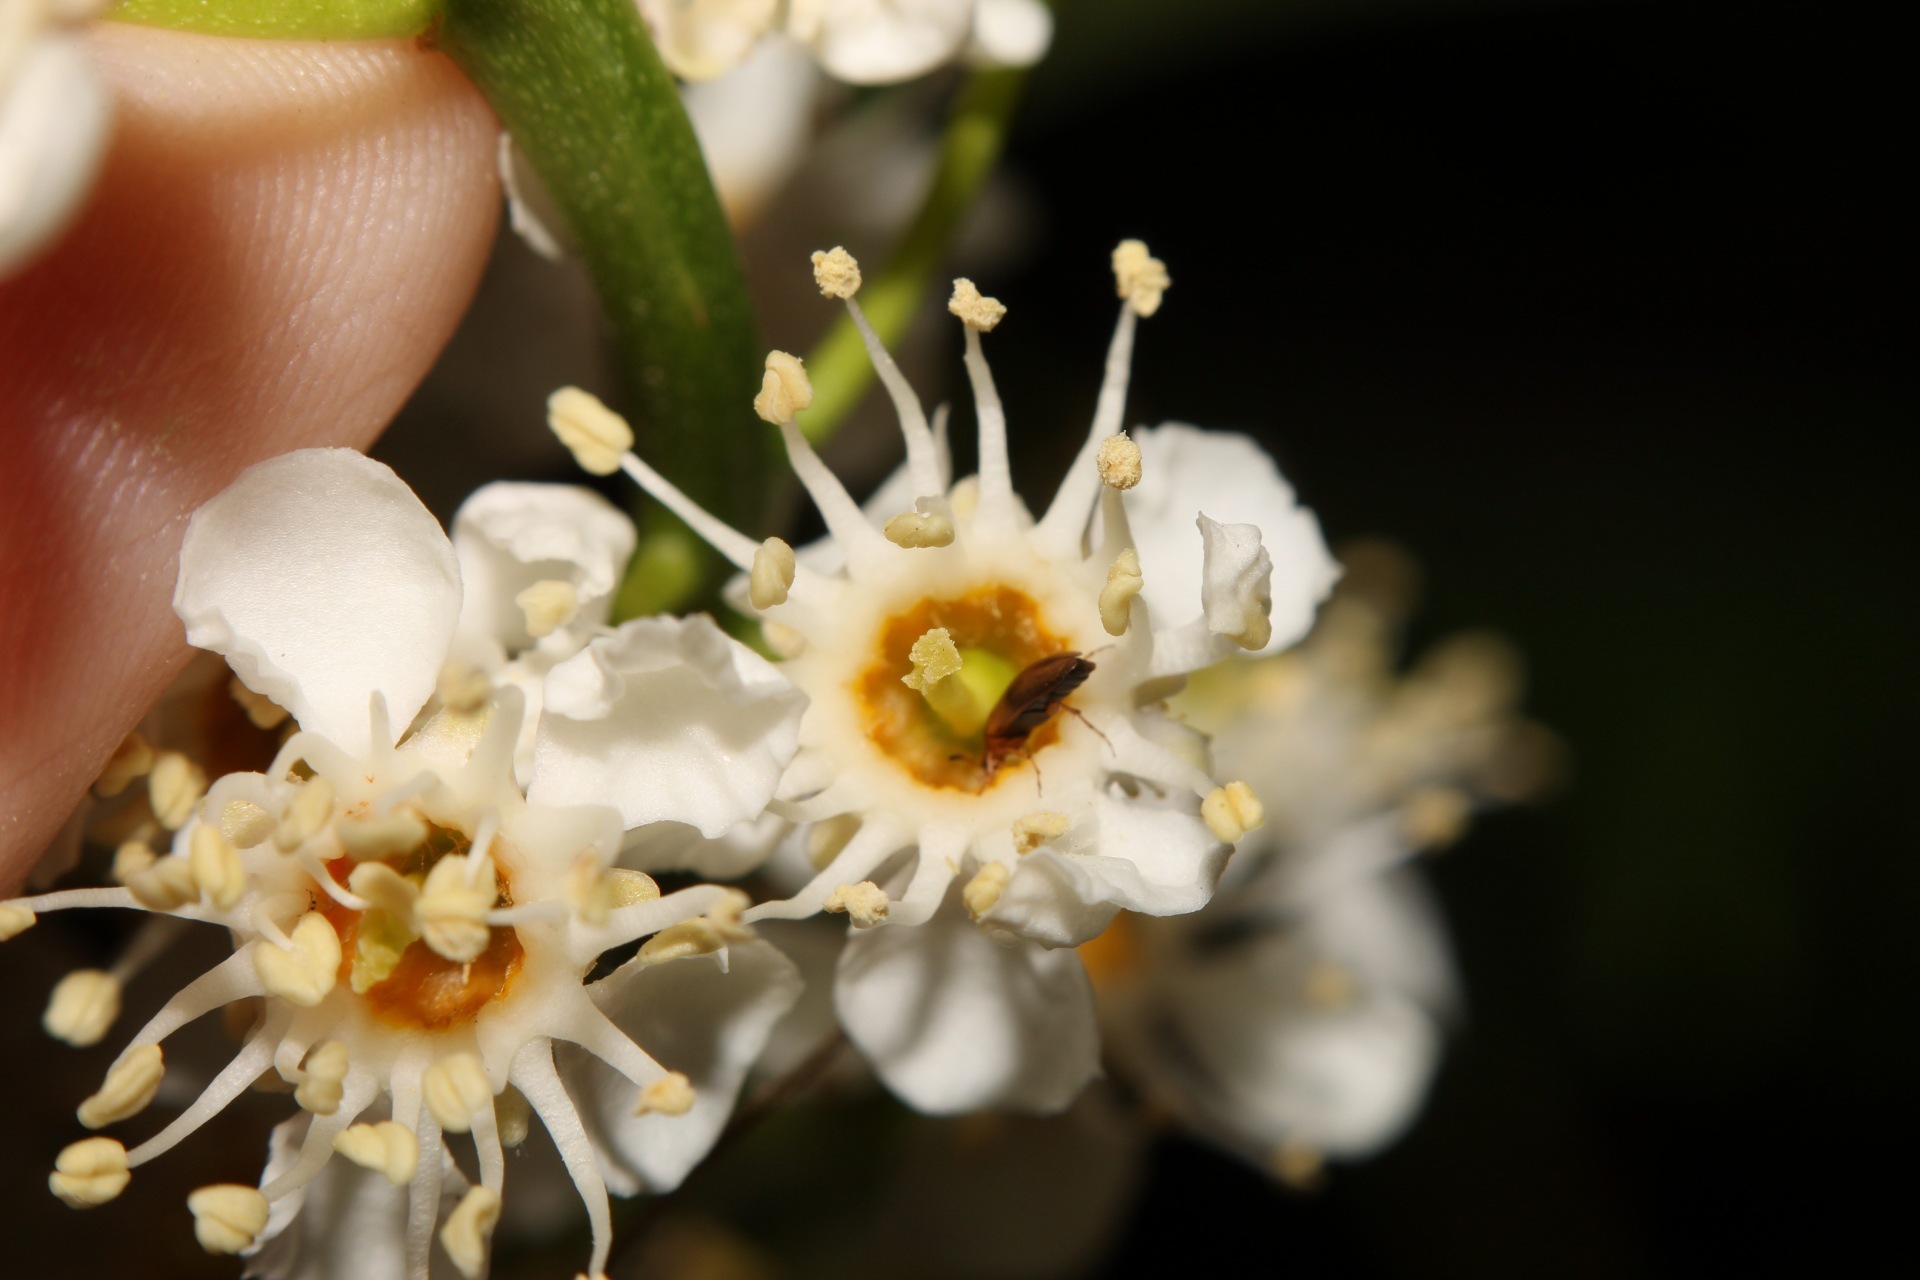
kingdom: Animalia
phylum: Arthropoda
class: Insecta
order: Coleoptera
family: Scraptiidae
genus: Anaspis
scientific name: Anaspis maculata
